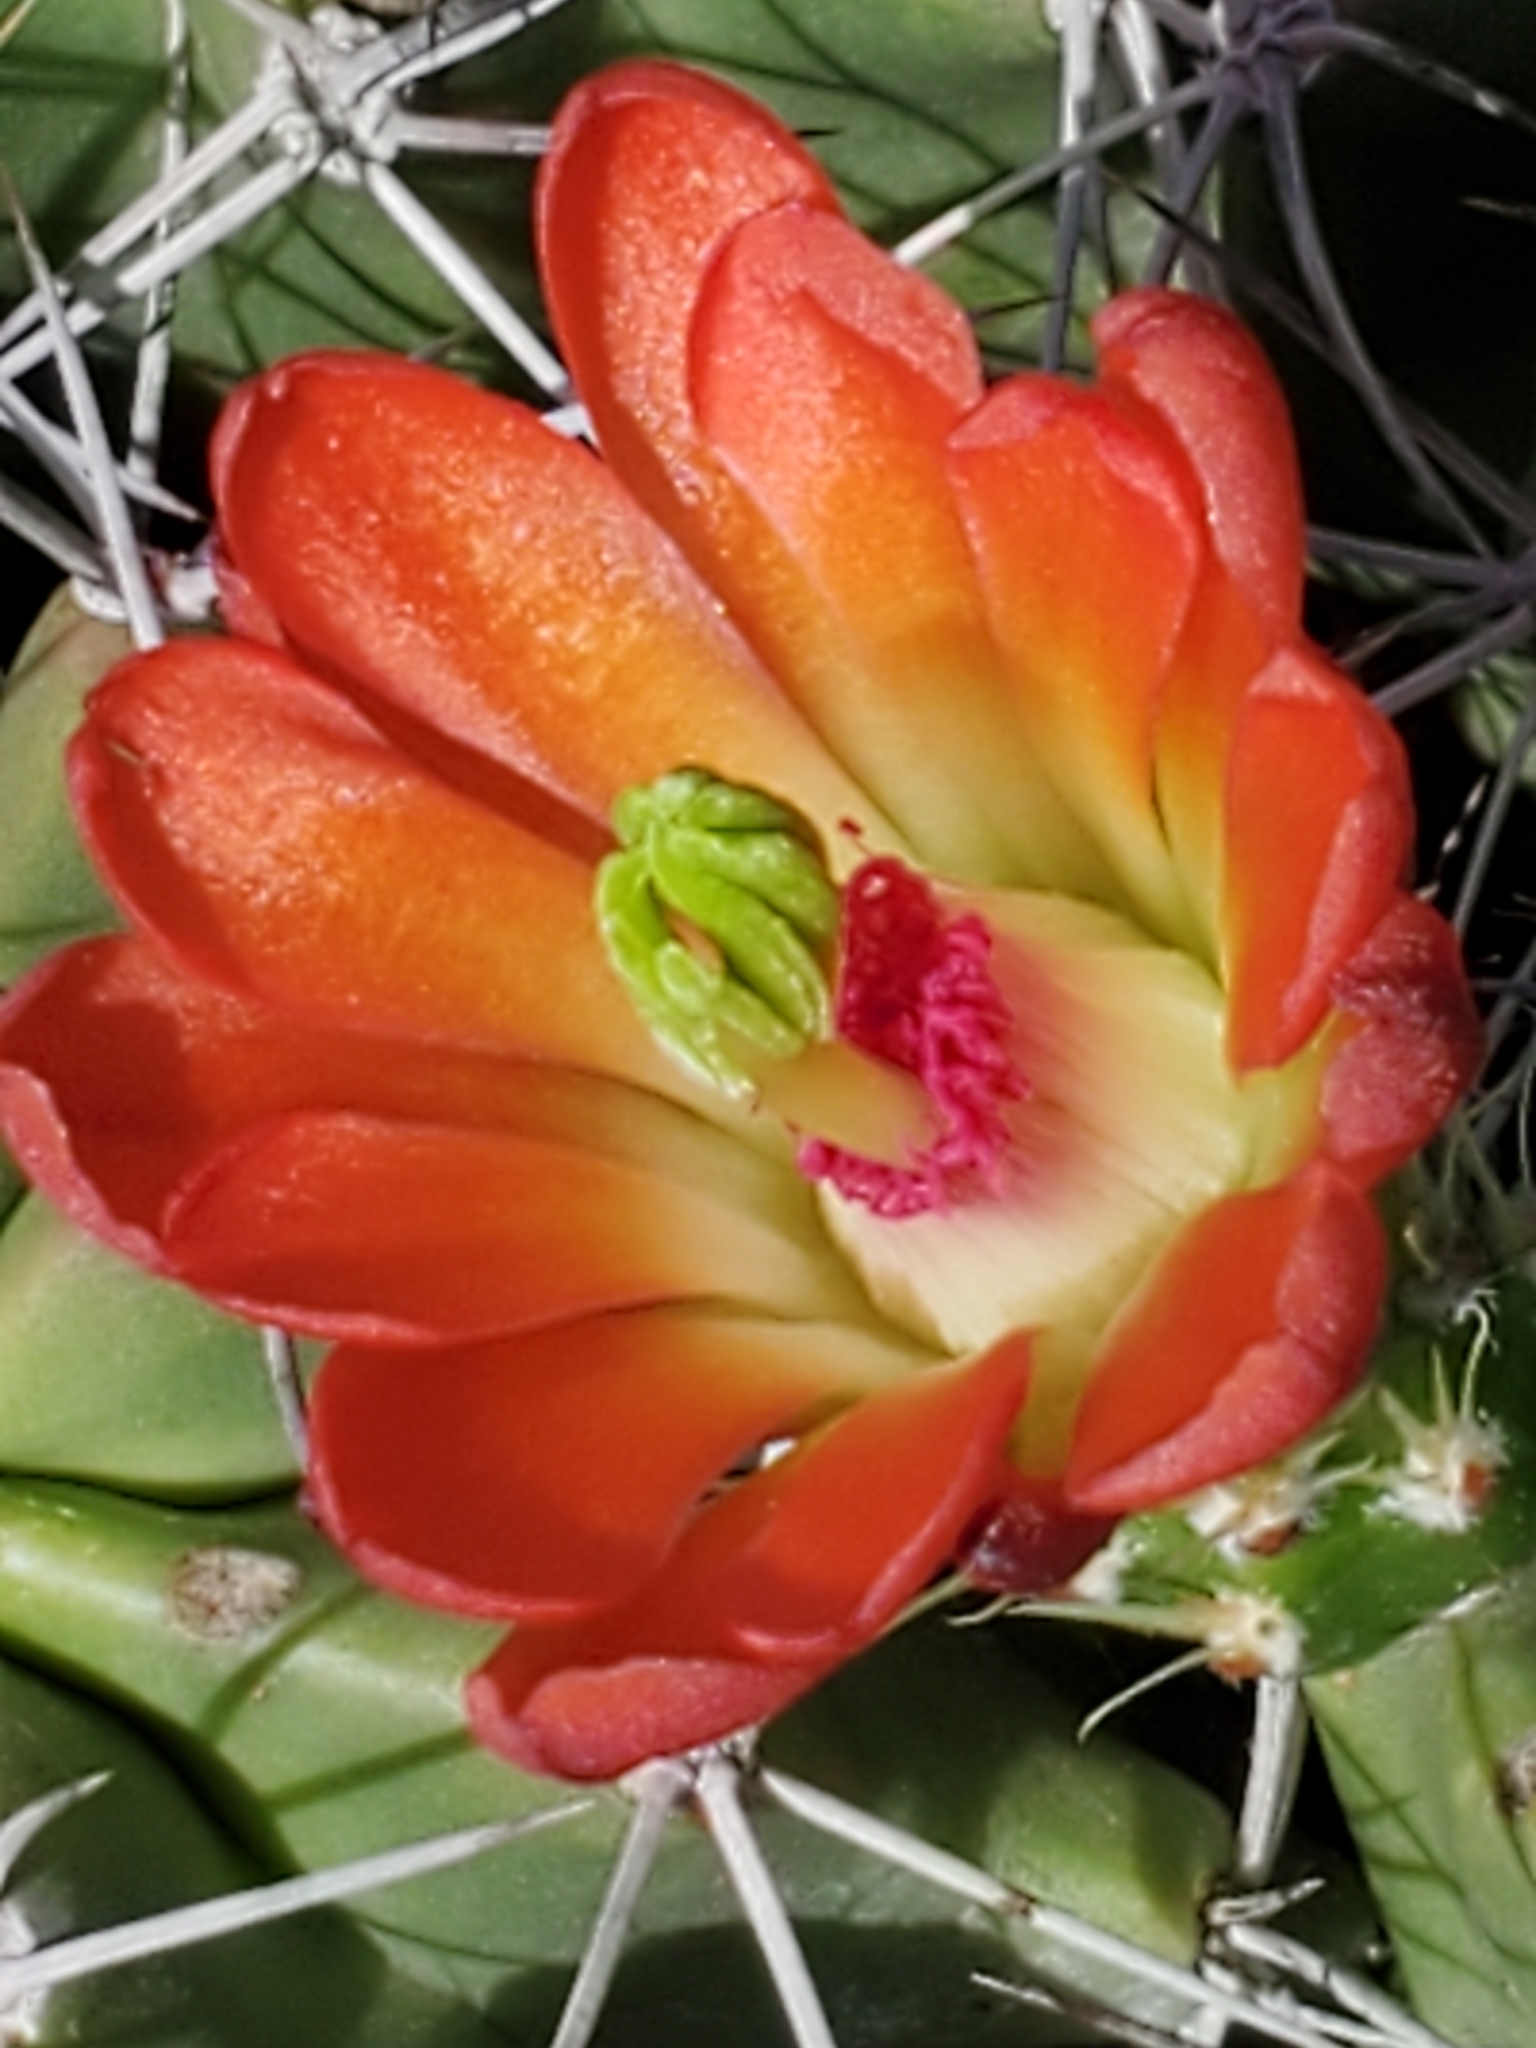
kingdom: Plantae
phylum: Tracheophyta
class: Magnoliopsida
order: Caryophyllales
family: Cactaceae
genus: Echinocereus
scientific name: Echinocereus coccineus
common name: Scarlet hedgehog cactus
